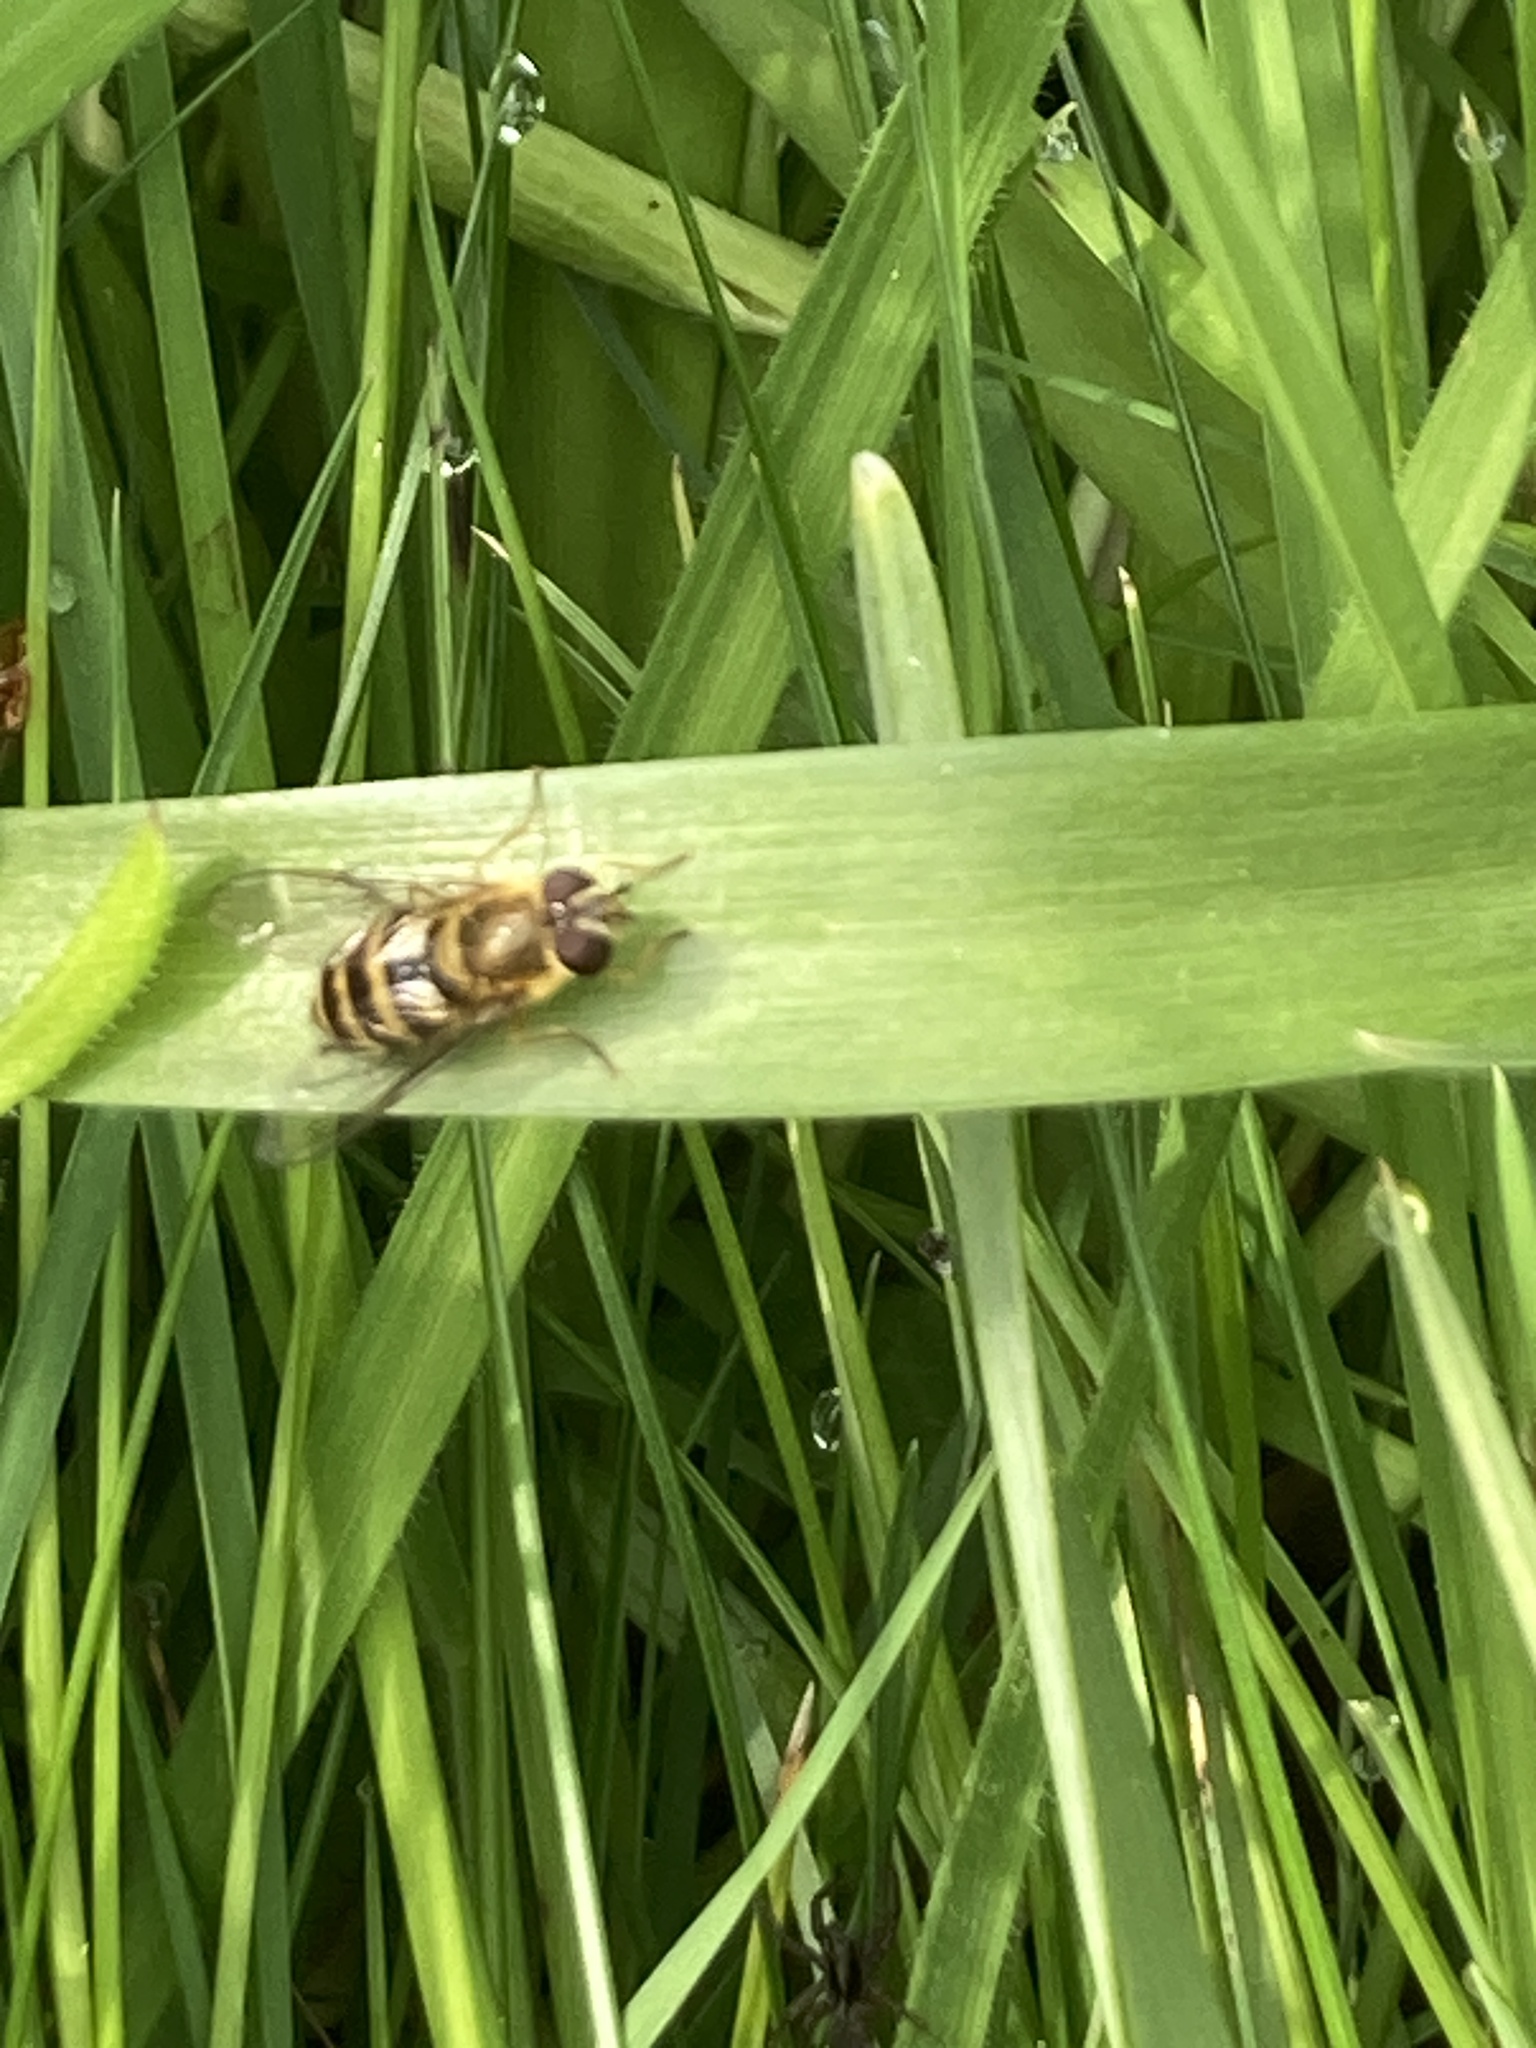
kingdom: Animalia
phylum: Arthropoda
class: Insecta
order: Diptera
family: Syrphidae
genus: Syrphus
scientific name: Syrphus
